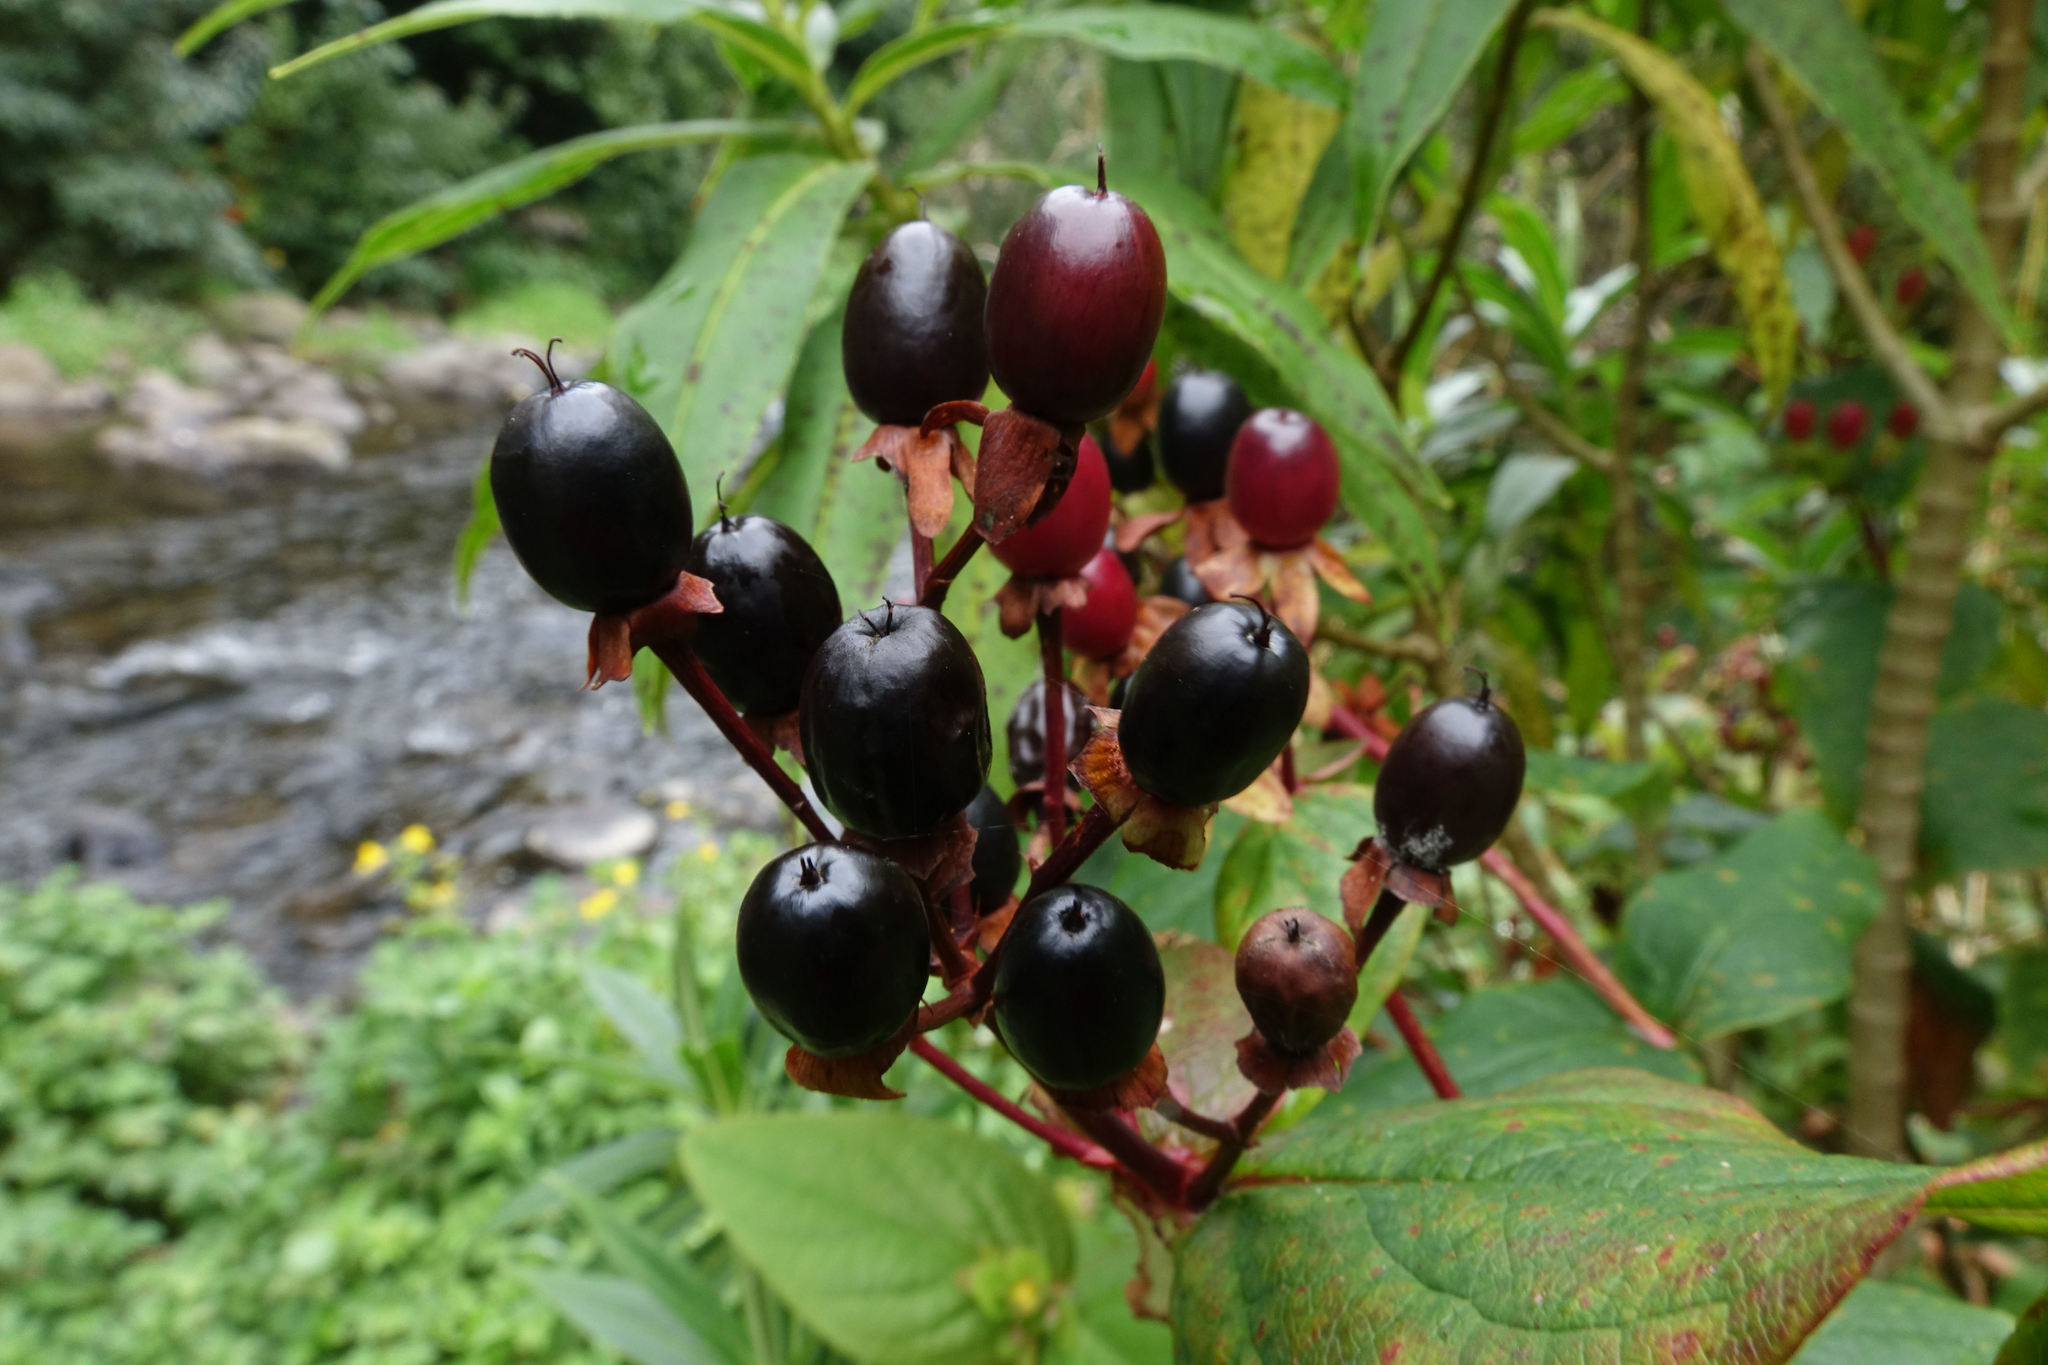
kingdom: Plantae
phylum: Tracheophyta
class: Magnoliopsida
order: Malpighiales
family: Hypericaceae
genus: Hypericum
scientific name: Hypericum androsaemum
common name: Sweet-amber
